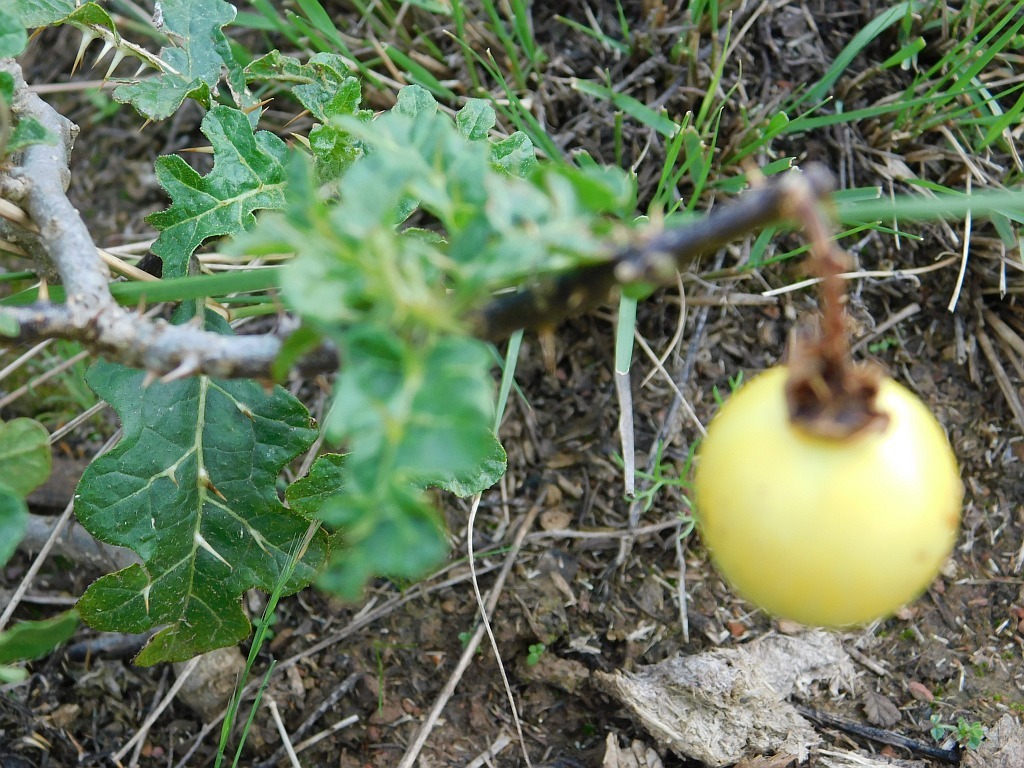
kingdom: Plantae
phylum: Tracheophyta
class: Magnoliopsida
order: Solanales
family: Solanaceae
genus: Solanum
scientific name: Solanum linnaeanum
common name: Nightshade
